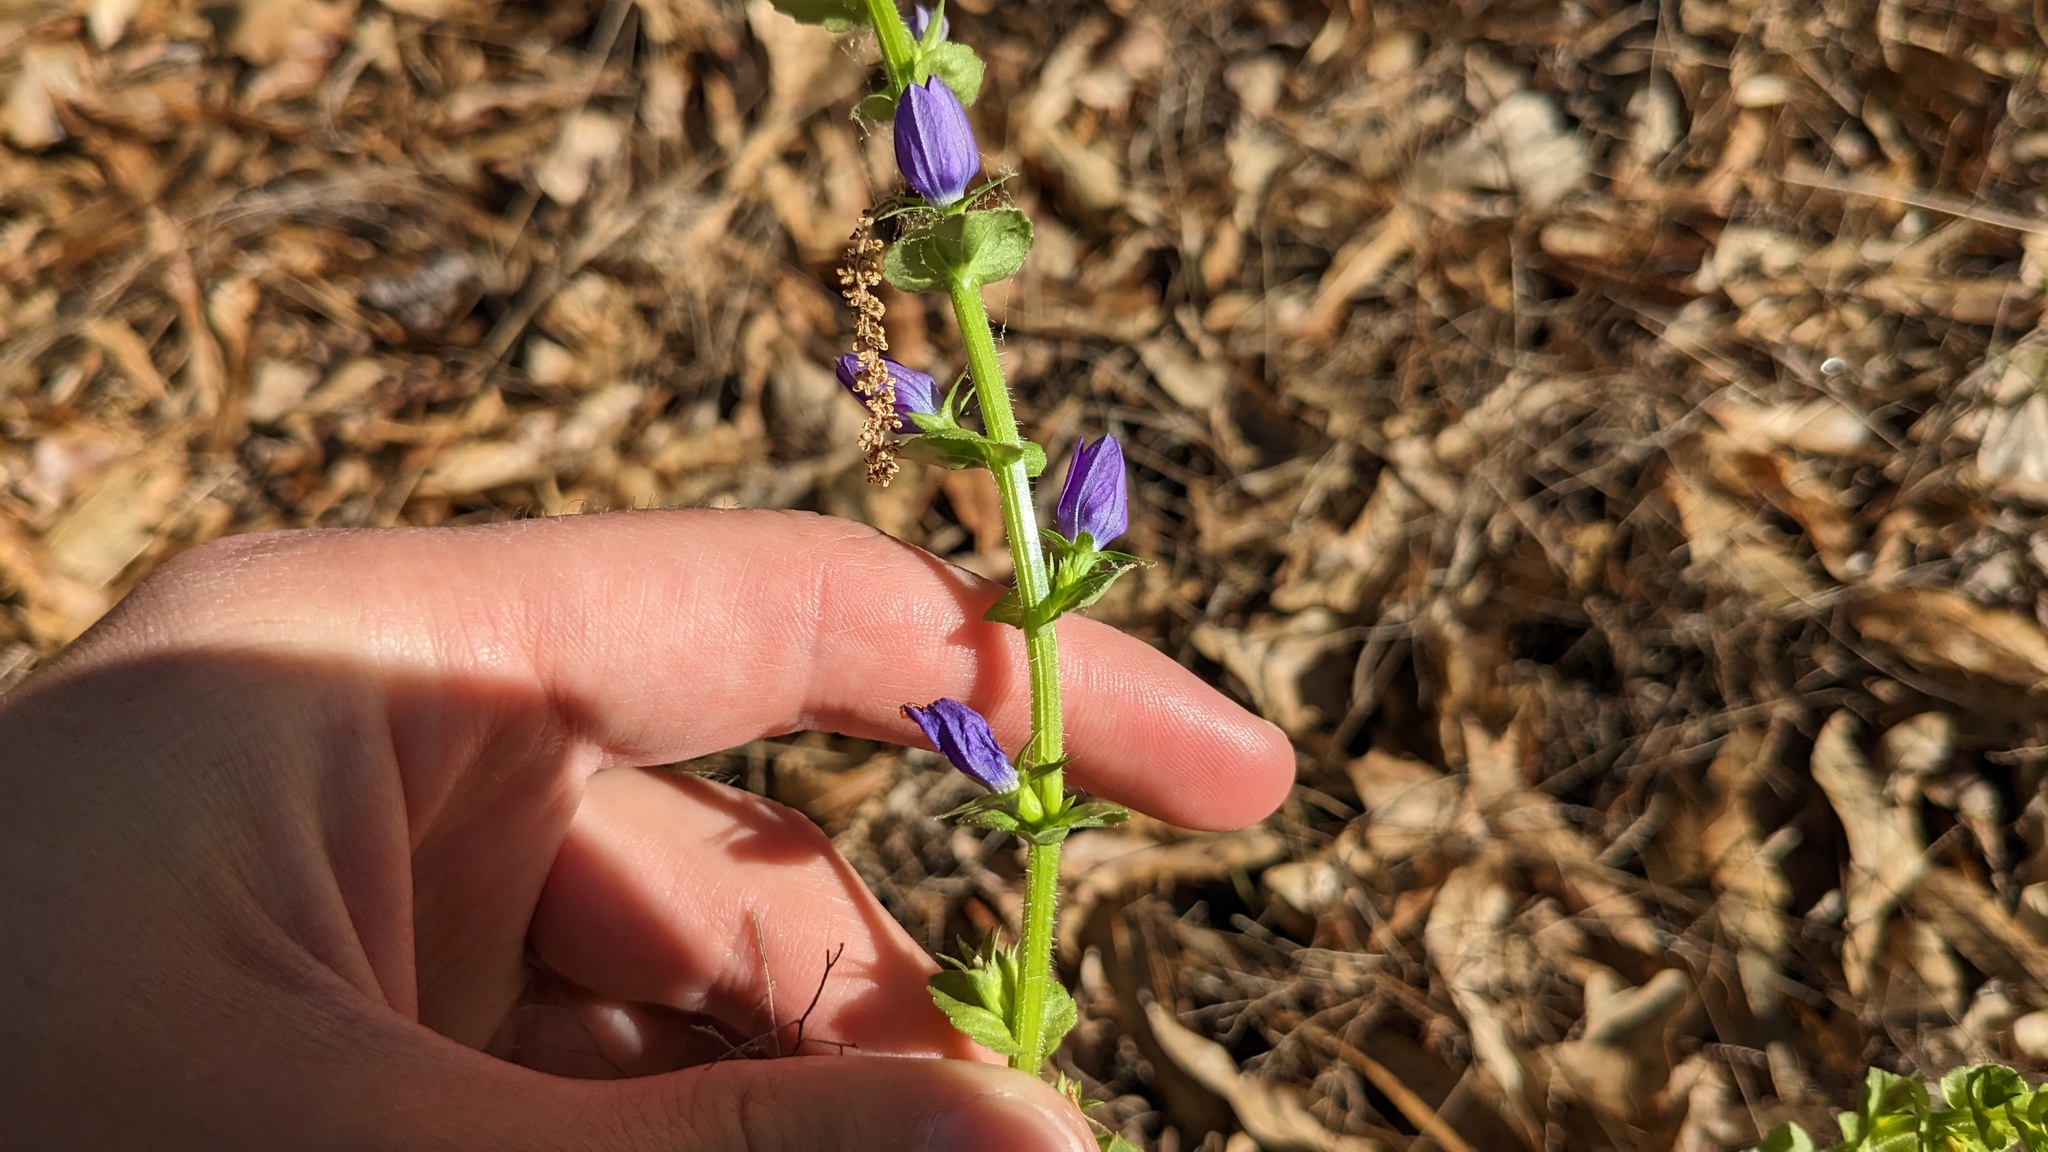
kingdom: Plantae
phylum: Tracheophyta
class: Magnoliopsida
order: Asterales
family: Campanulaceae
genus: Triodanis
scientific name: Triodanis perfoliata
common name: Clasping venus' looking-glass
